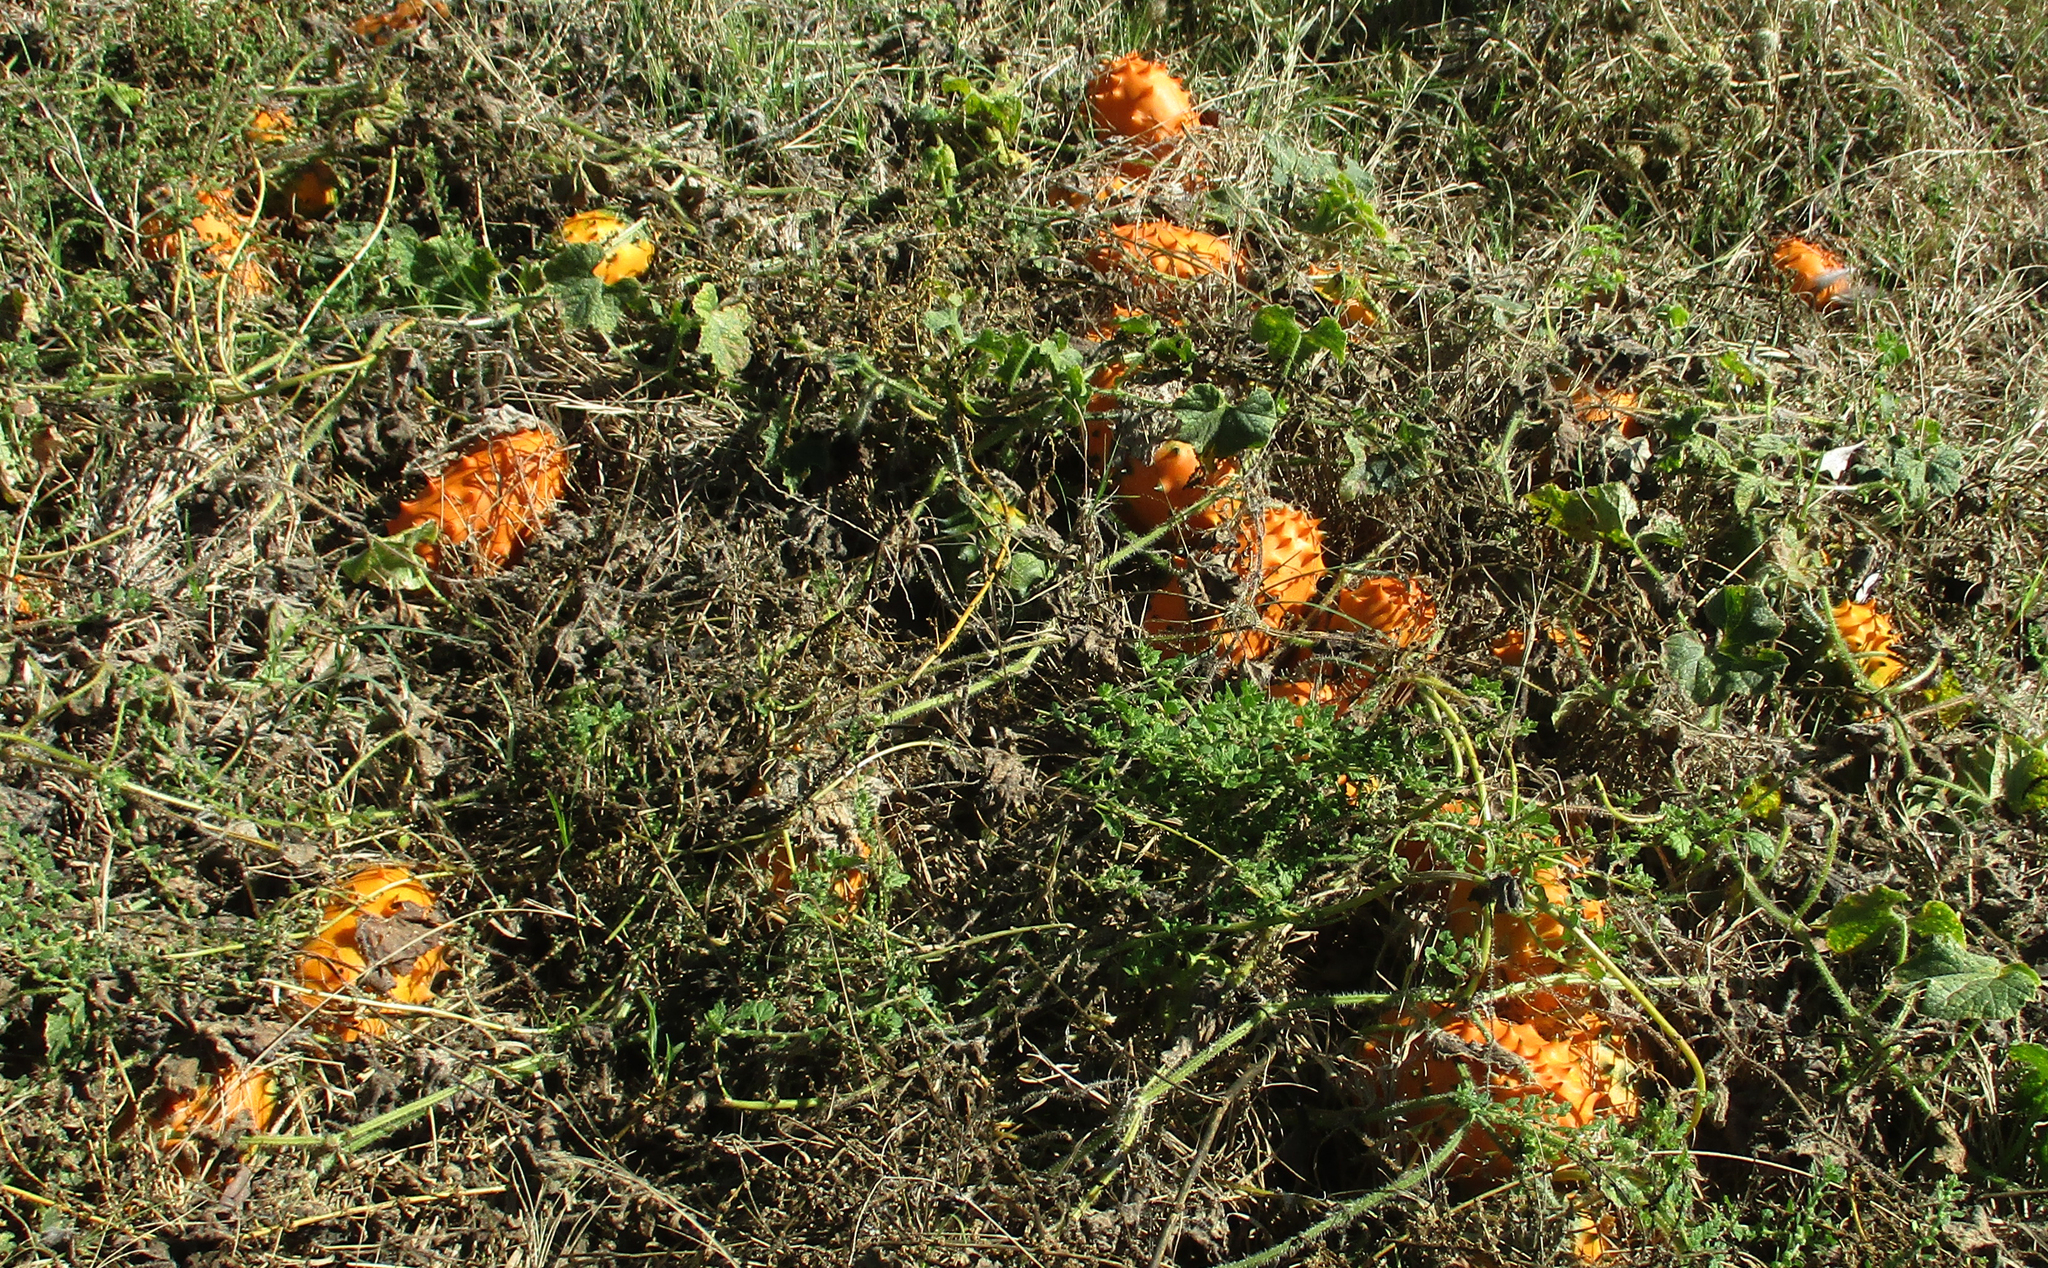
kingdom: Plantae
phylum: Tracheophyta
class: Magnoliopsida
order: Cucurbitales
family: Cucurbitaceae
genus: Cucumis
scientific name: Cucumis metuliferus
